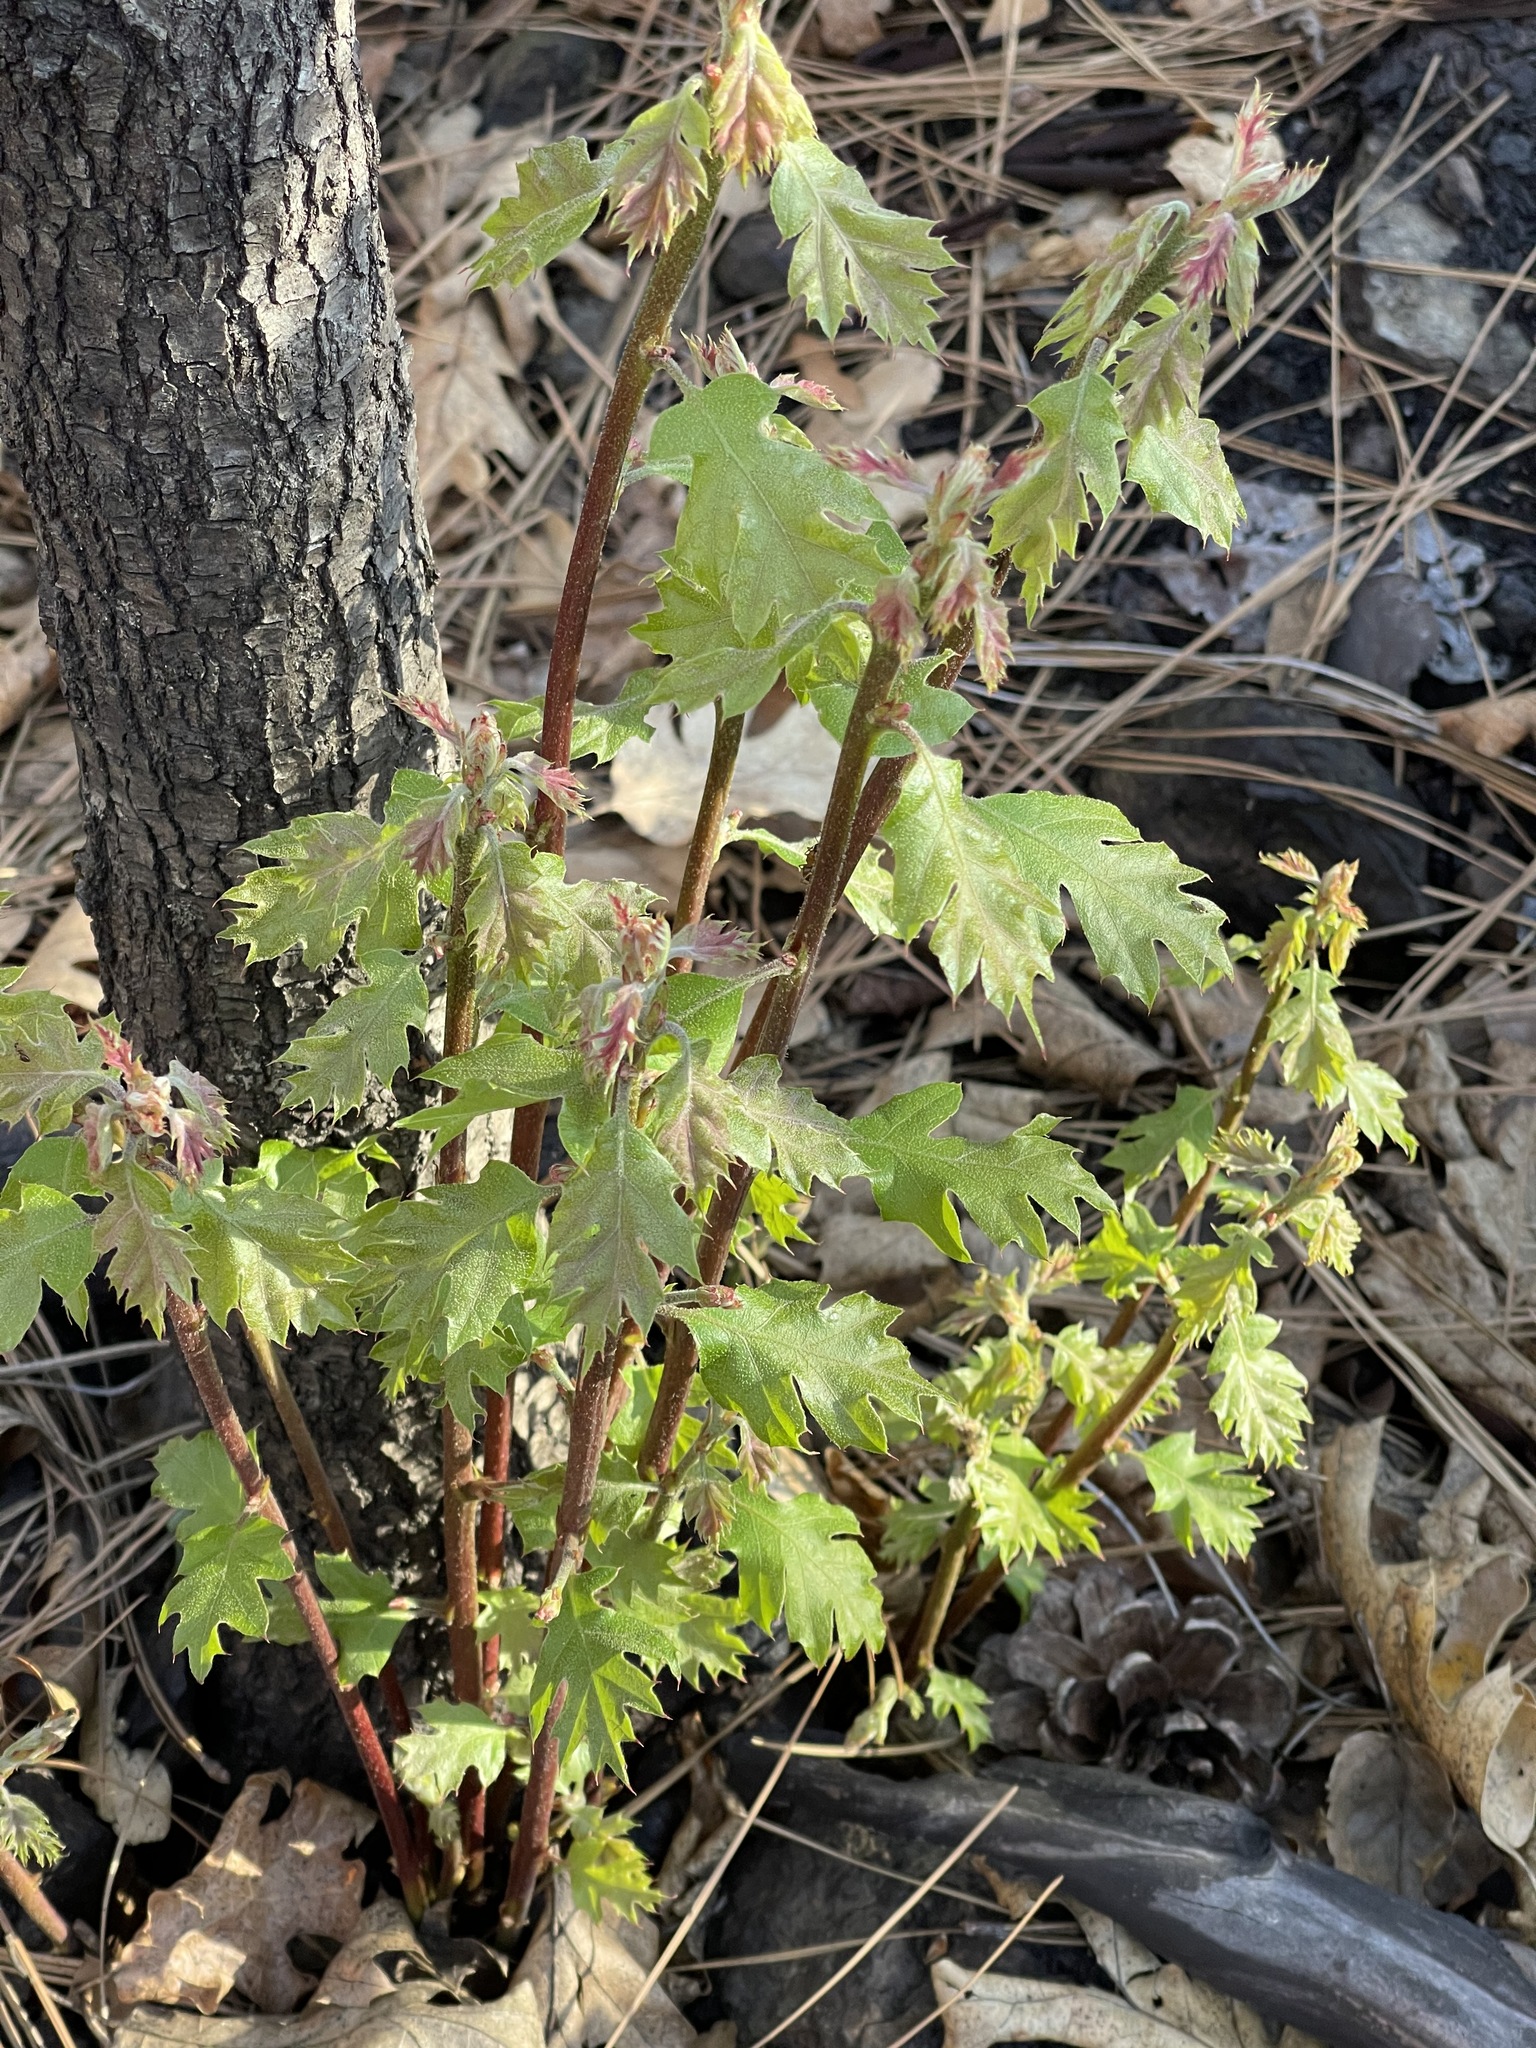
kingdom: Plantae
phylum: Tracheophyta
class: Magnoliopsida
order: Fagales
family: Fagaceae
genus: Quercus
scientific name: Quercus kelloggii
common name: California black oak
